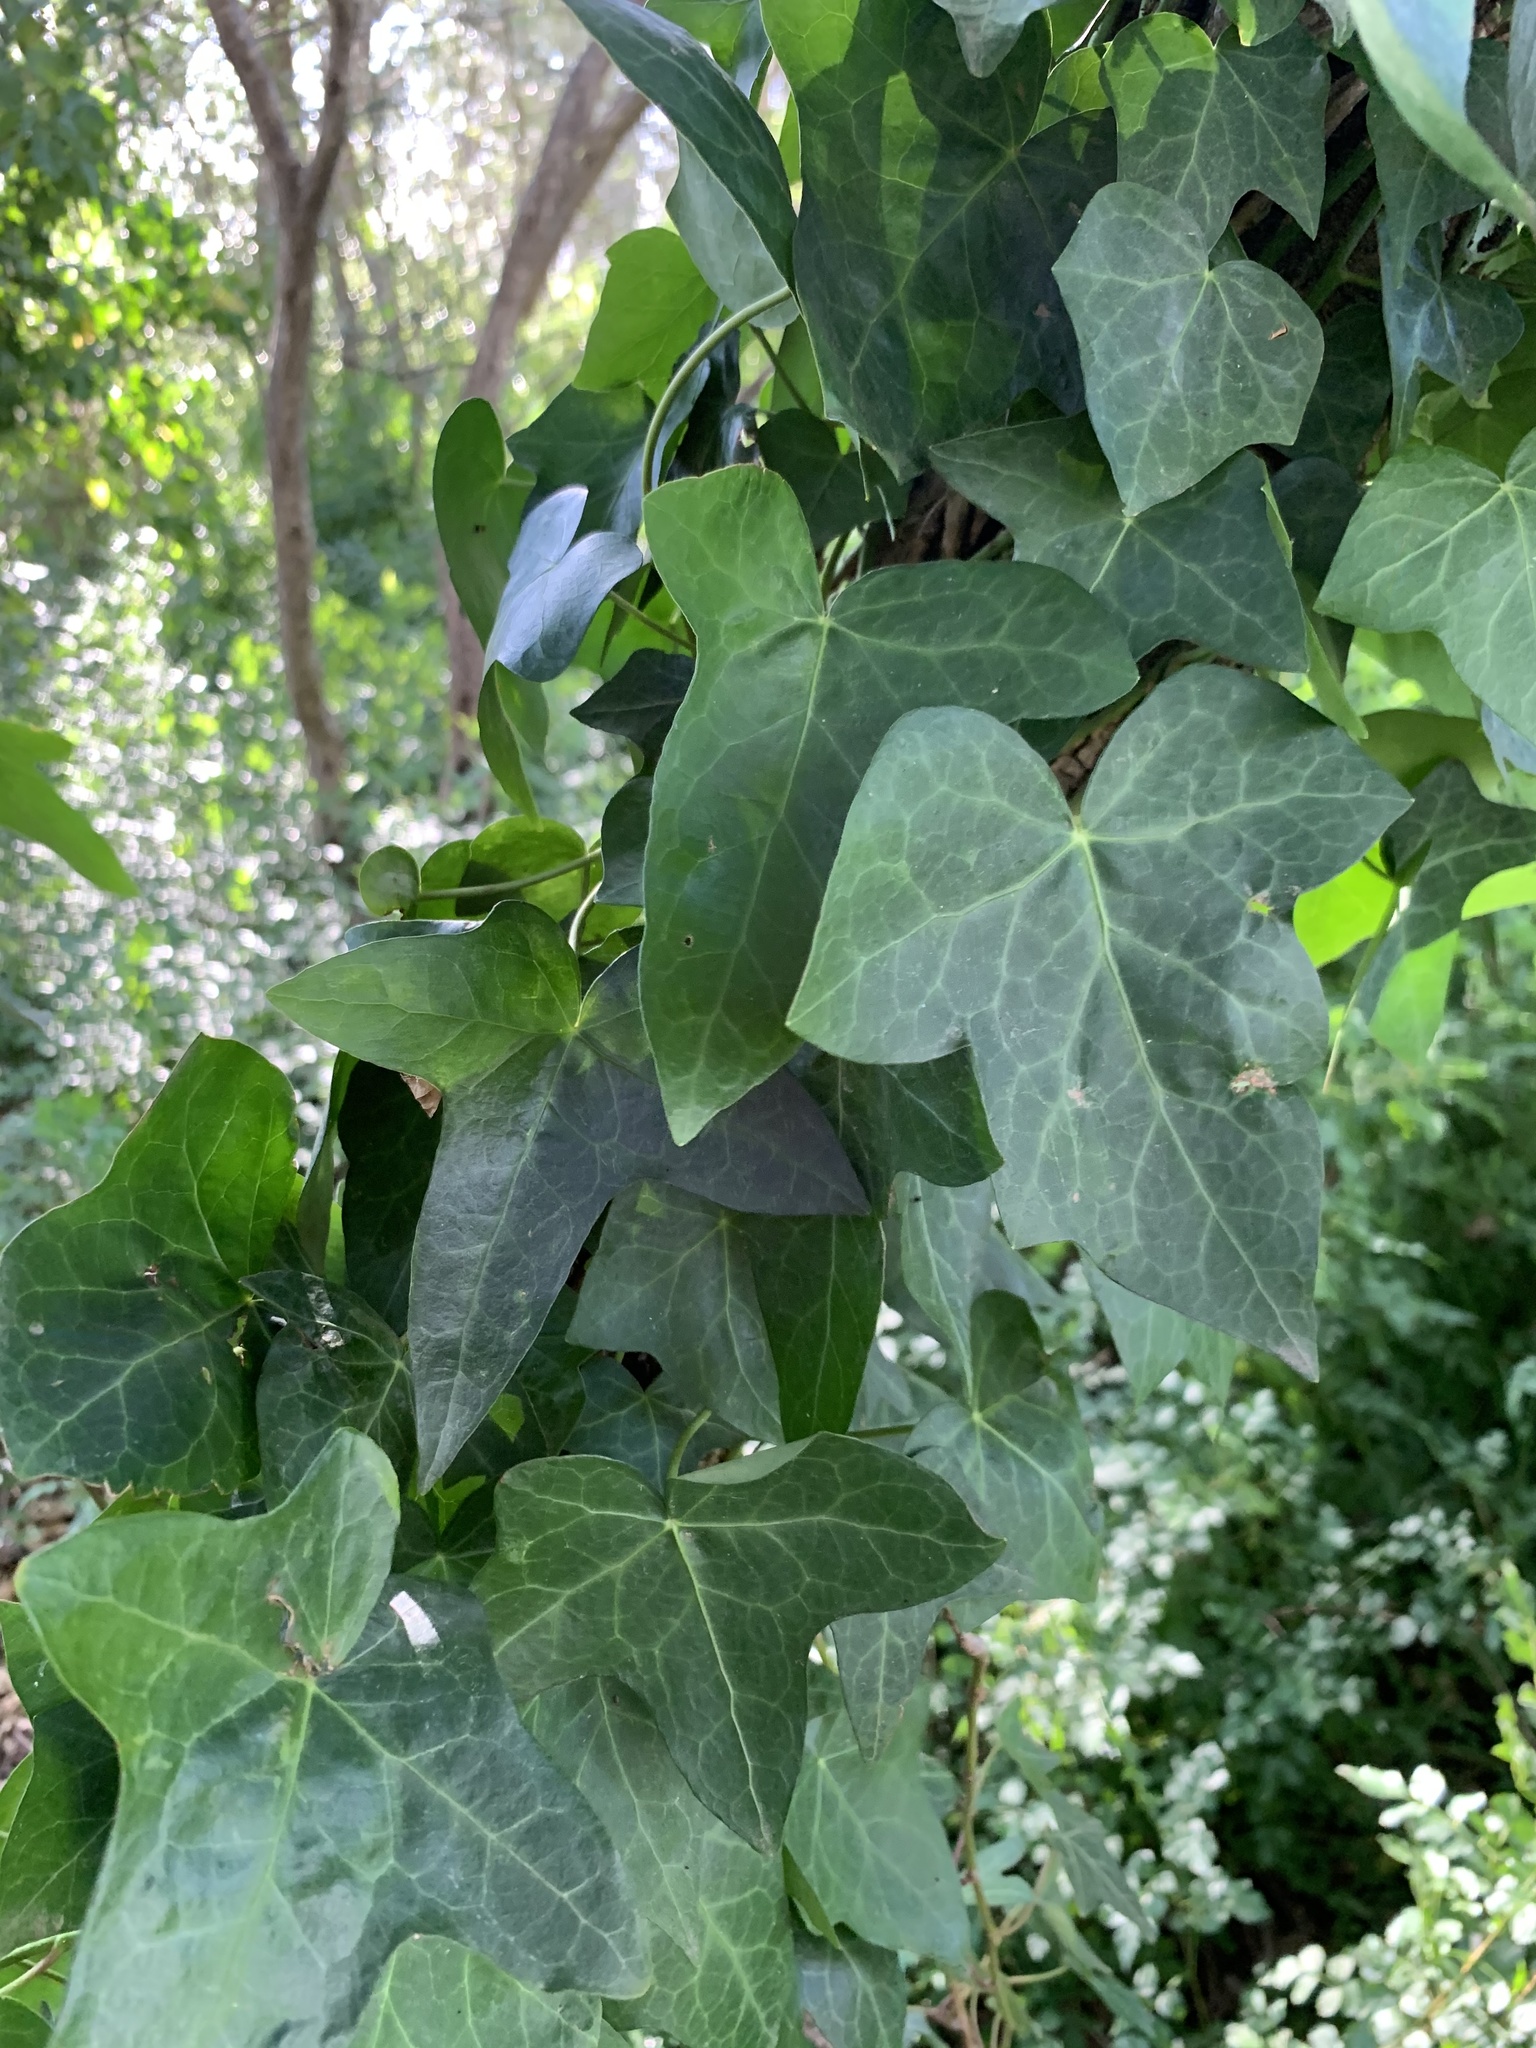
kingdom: Plantae
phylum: Tracheophyta
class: Magnoliopsida
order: Apiales
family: Araliaceae
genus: Hedera
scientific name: Hedera helix
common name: Ivy
